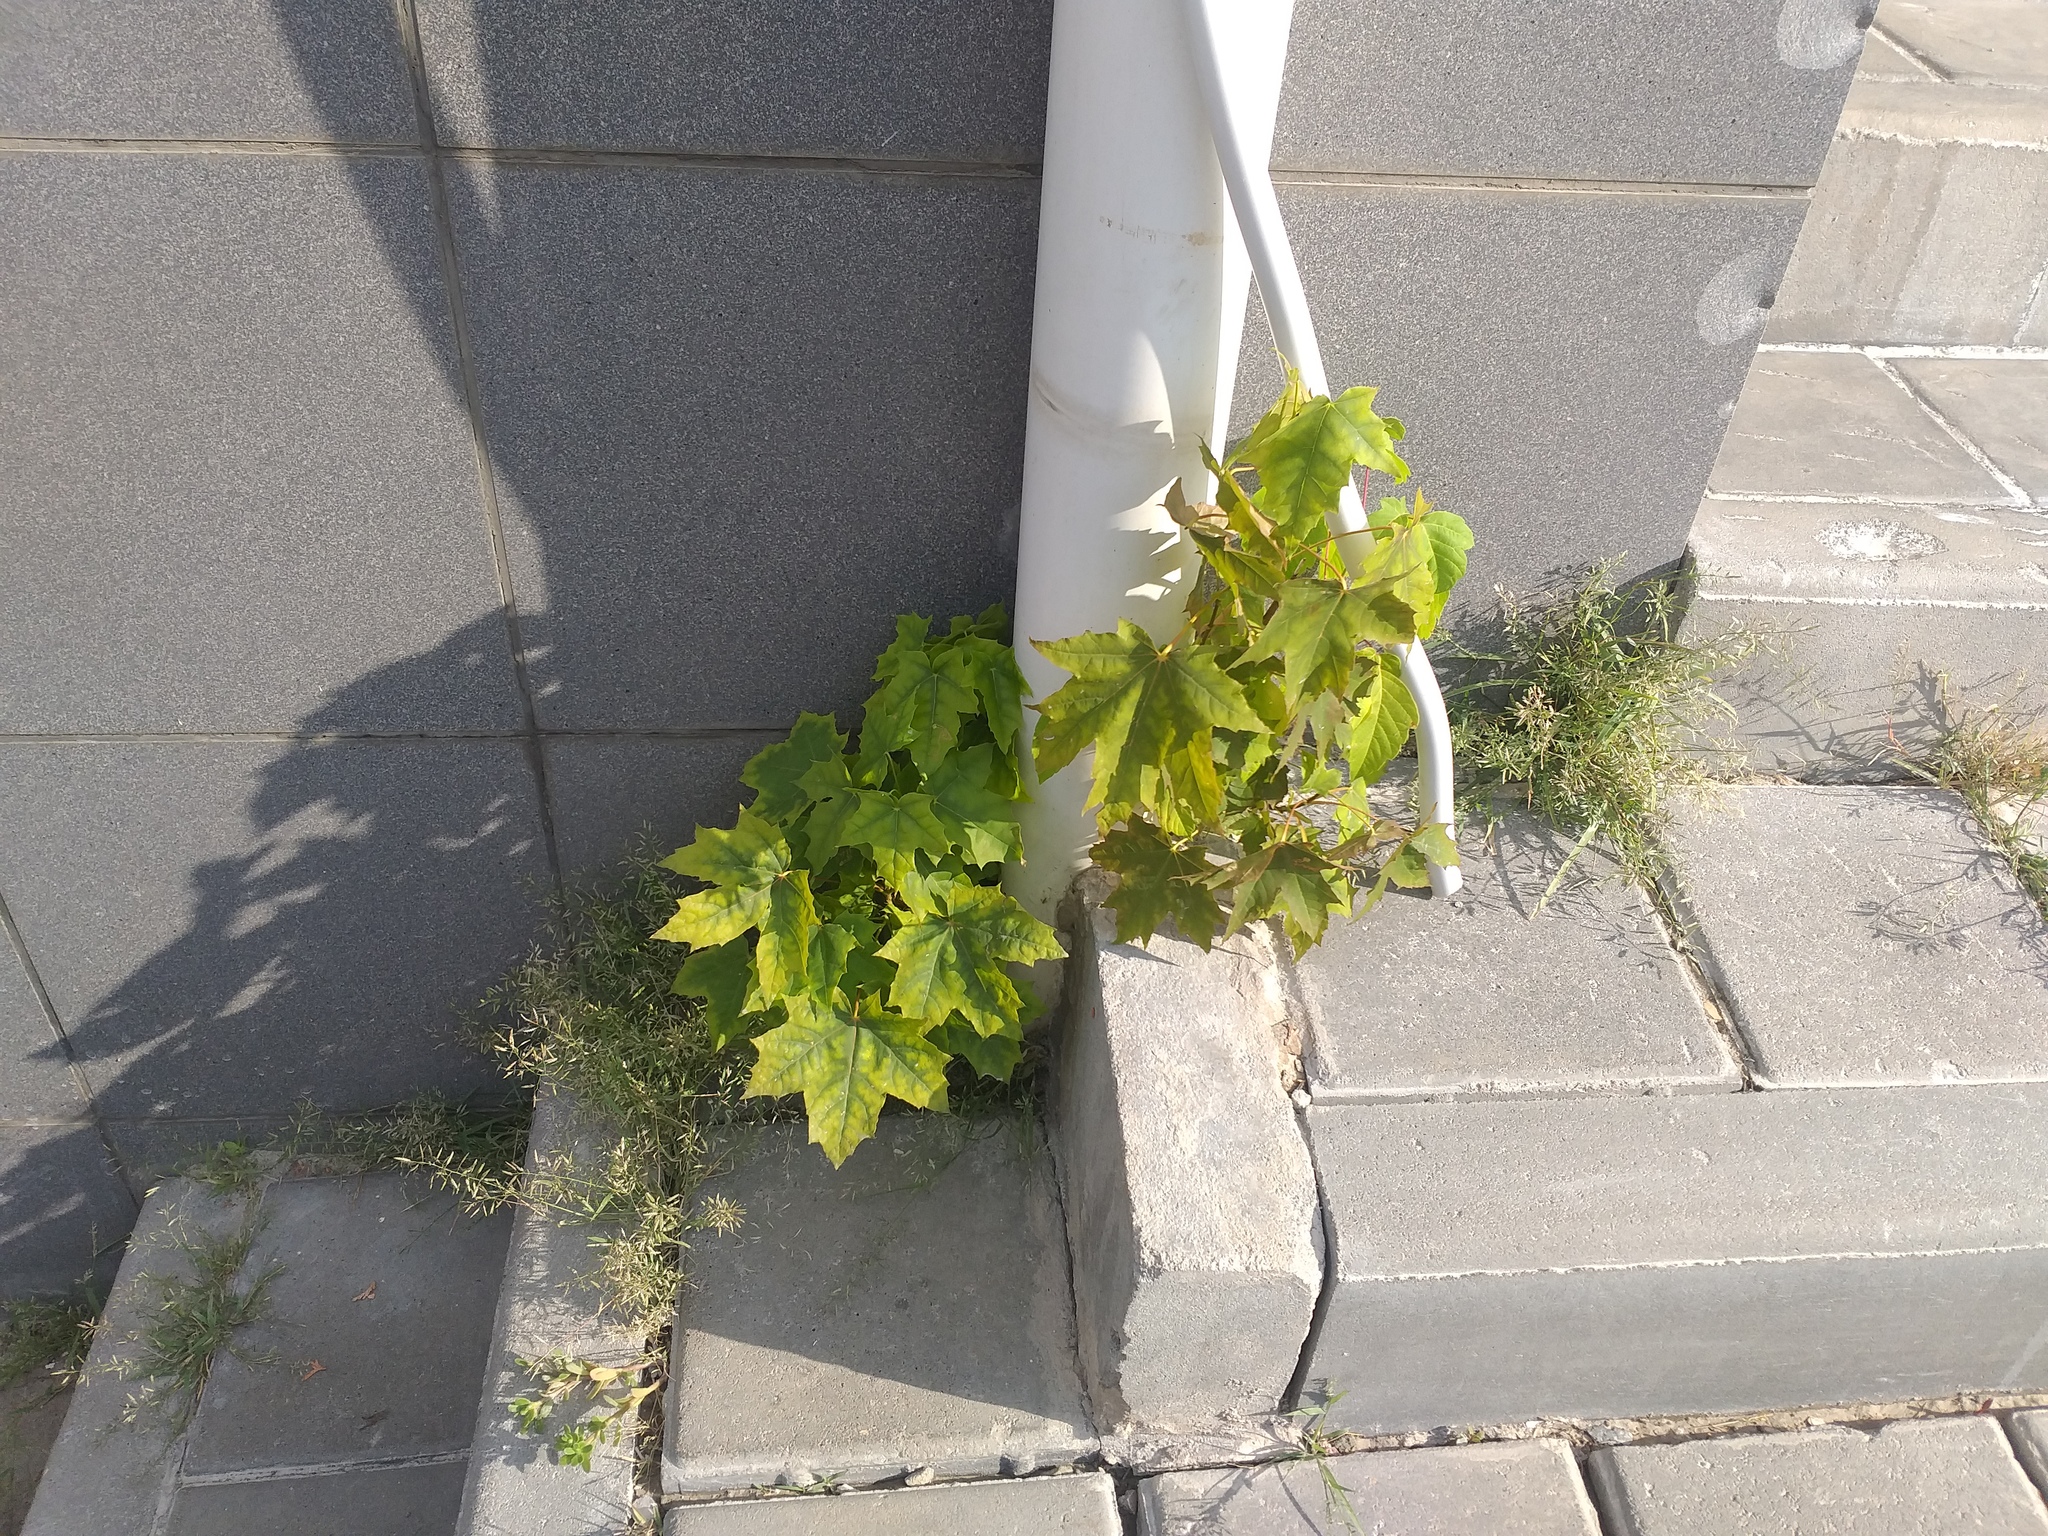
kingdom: Plantae
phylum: Tracheophyta
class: Magnoliopsida
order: Sapindales
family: Sapindaceae
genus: Acer
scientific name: Acer platanoides
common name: Norway maple
